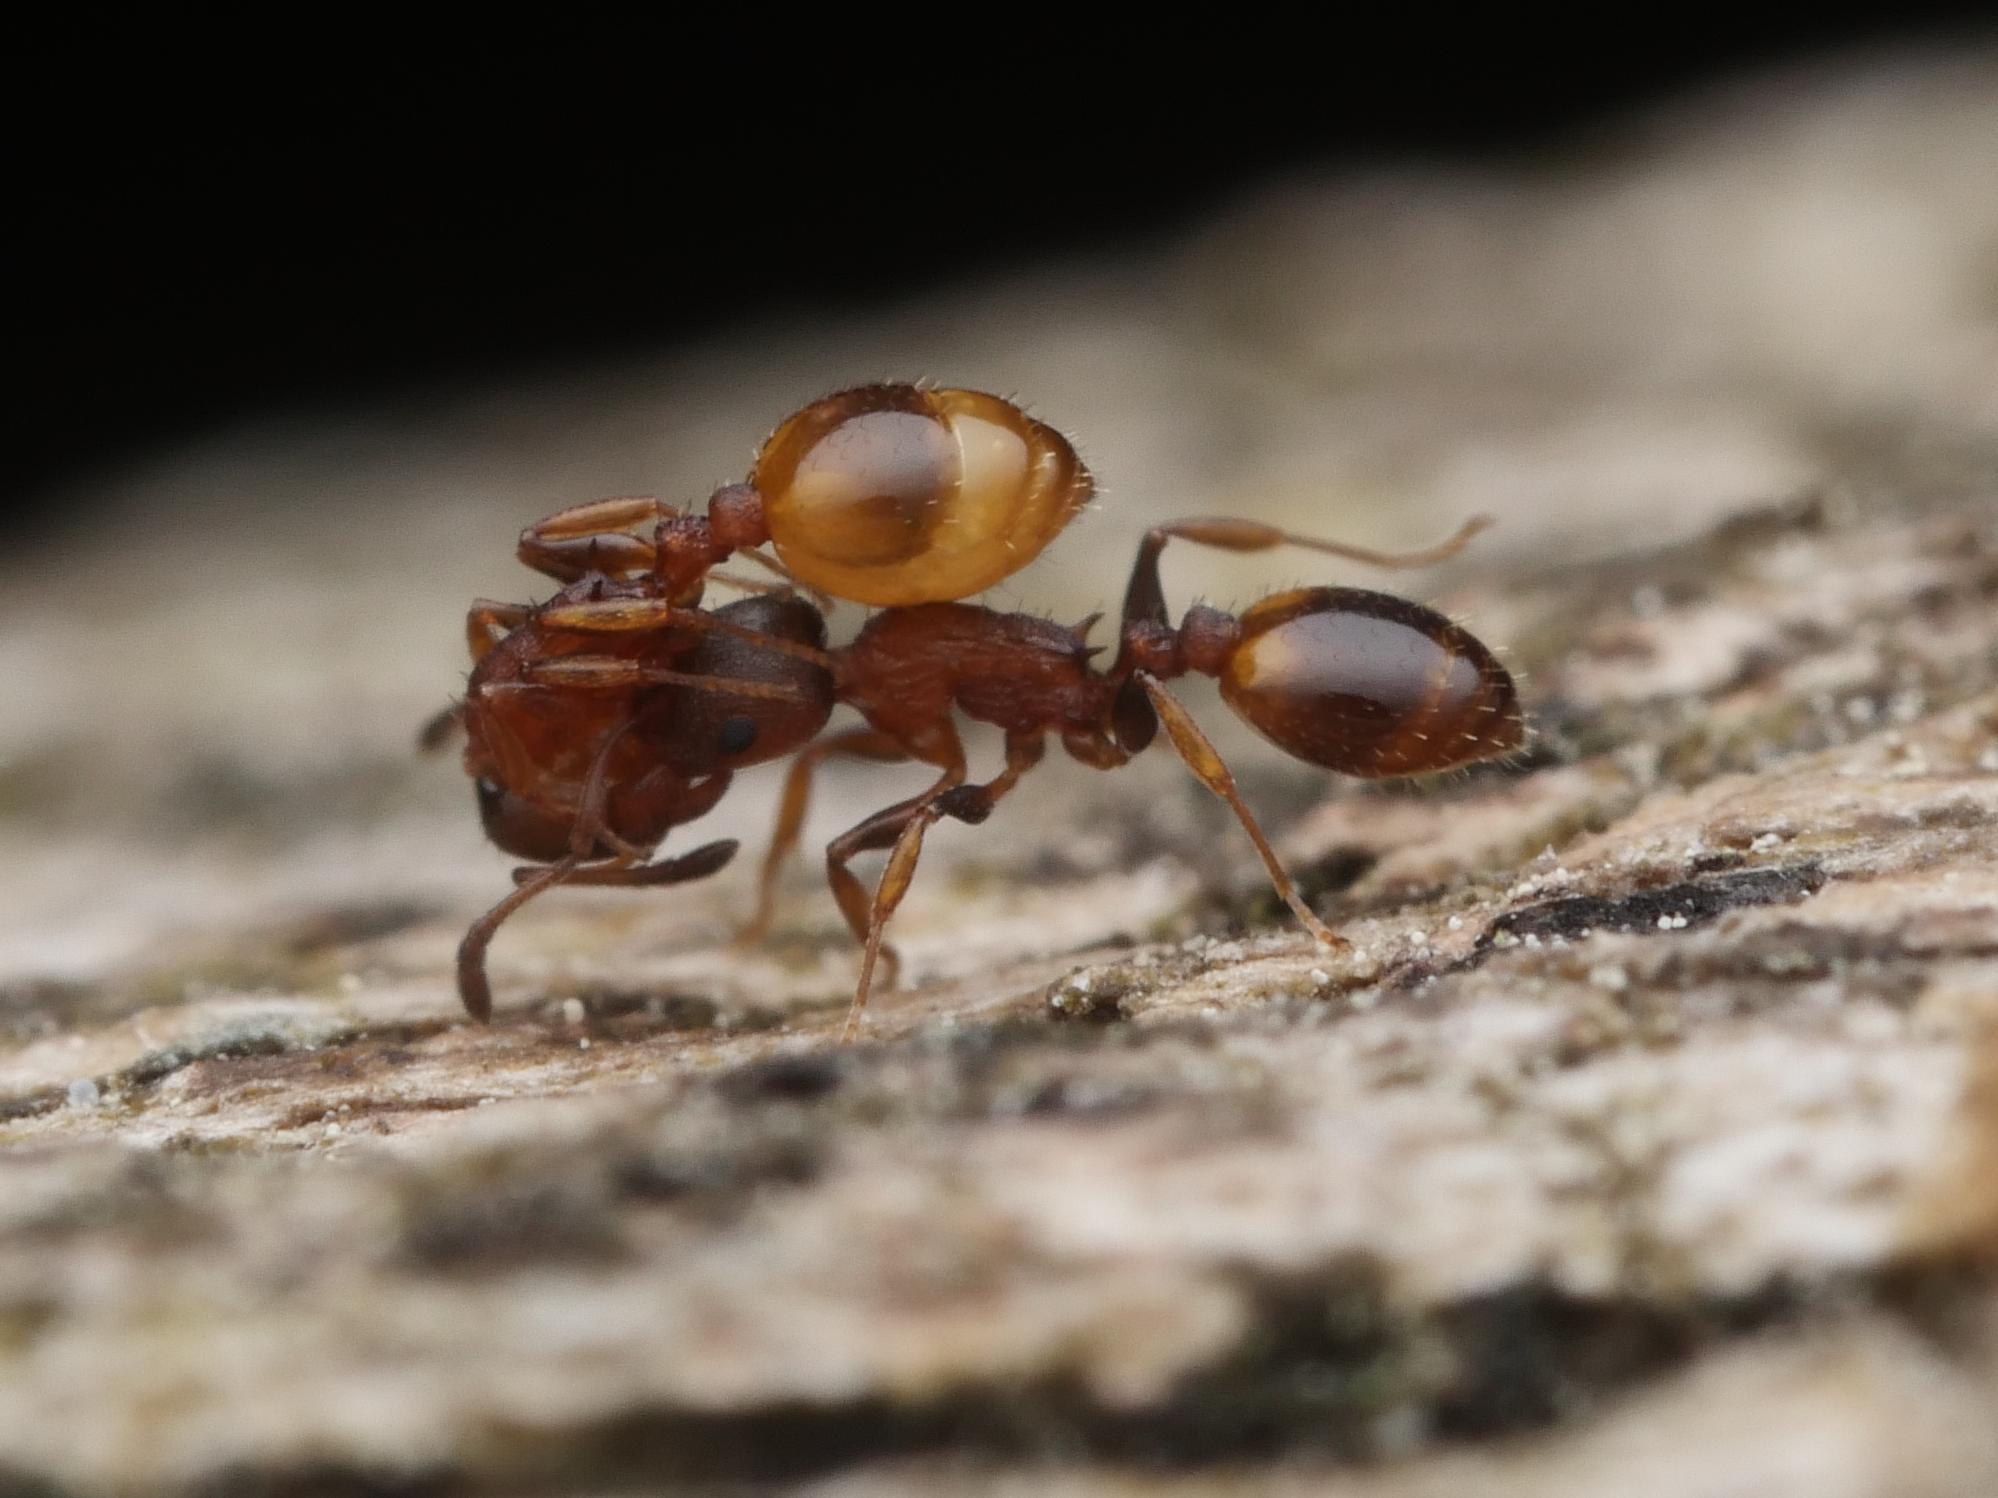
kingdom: Animalia
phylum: Arthropoda
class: Insecta
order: Hymenoptera
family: Formicidae
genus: Leptothorax
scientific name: Leptothorax affinis
